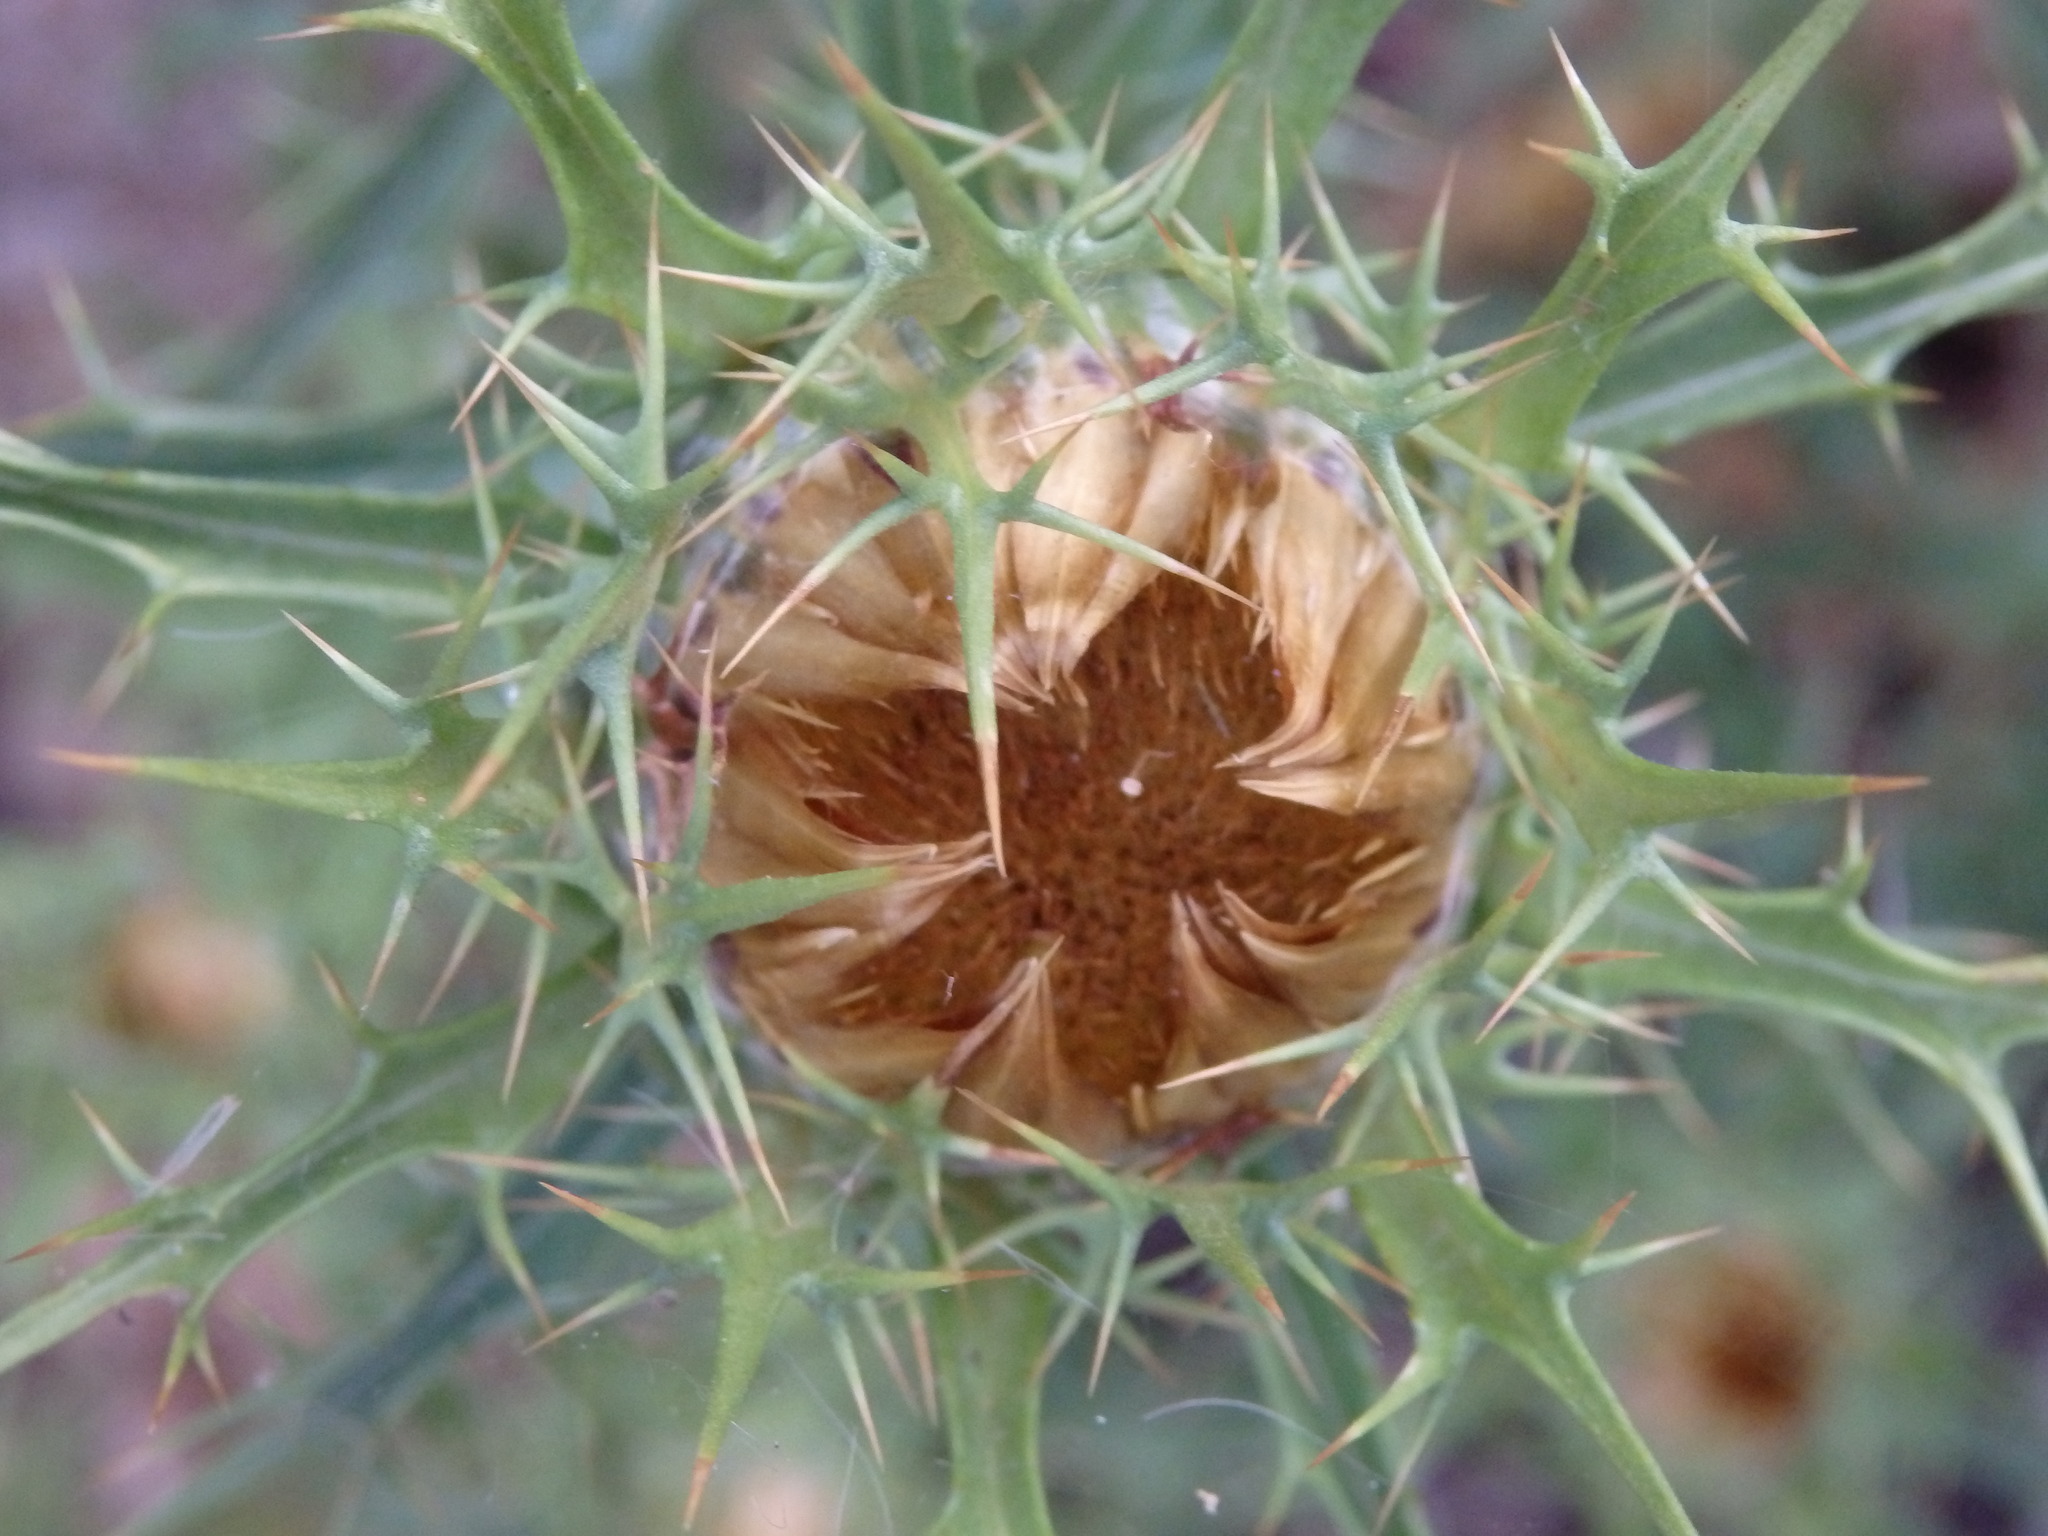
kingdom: Plantae
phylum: Tracheophyta
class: Magnoliopsida
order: Asterales
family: Asteraceae
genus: Carlina
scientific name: Carlina hispanica
